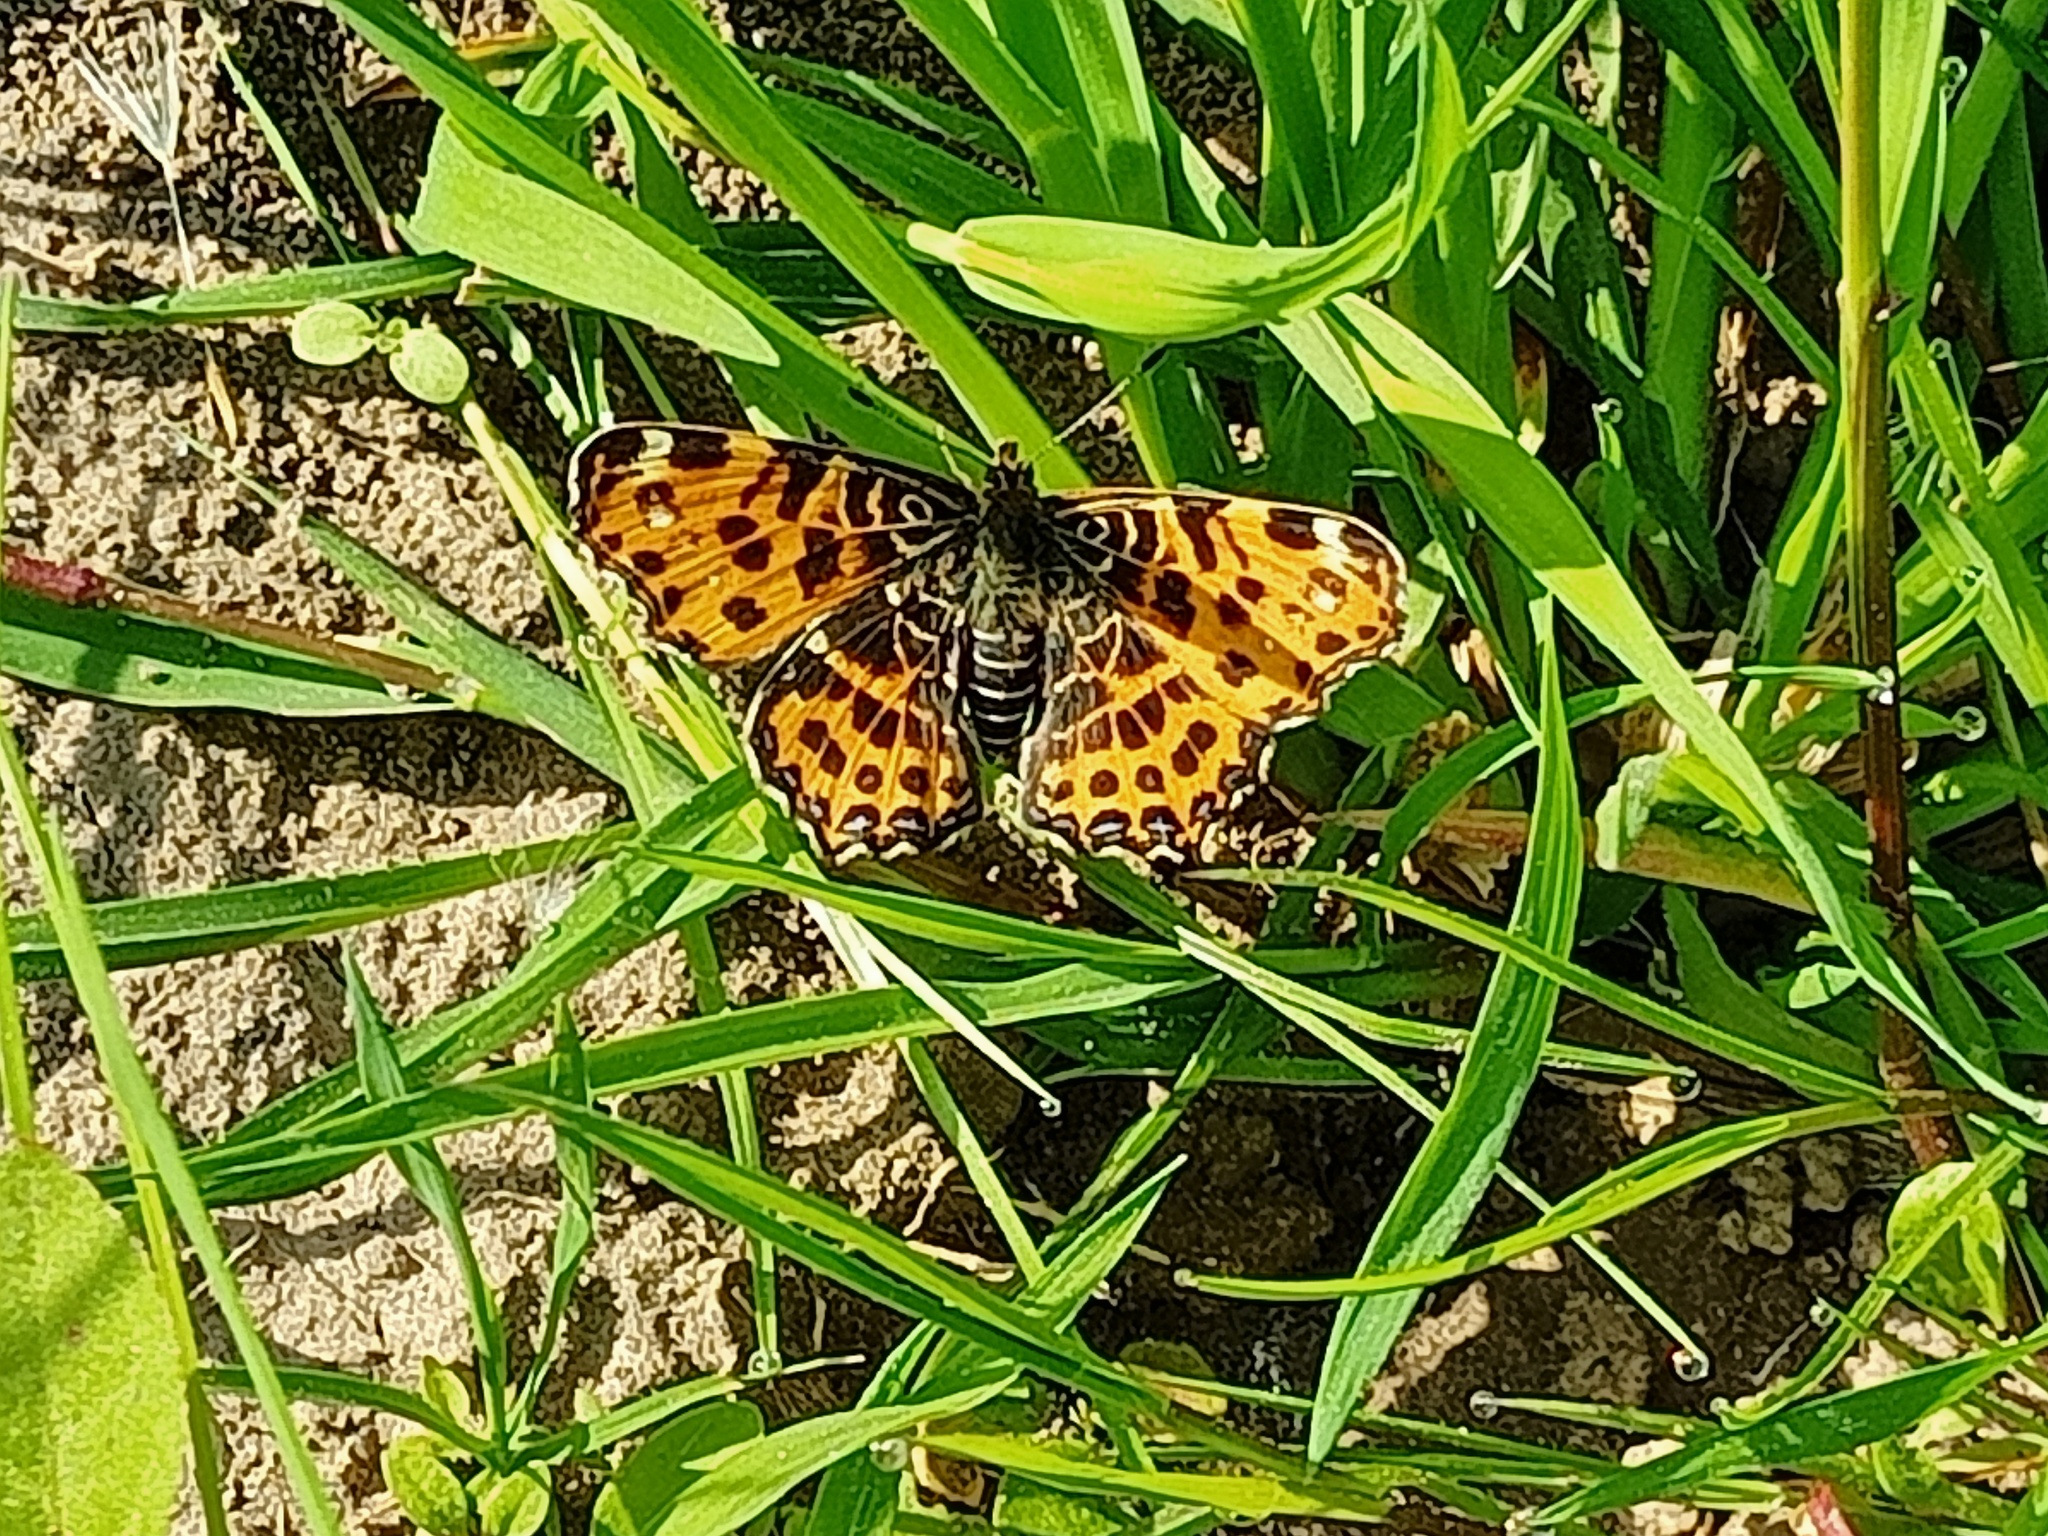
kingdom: Animalia
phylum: Arthropoda
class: Insecta
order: Lepidoptera
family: Nymphalidae
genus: Araschnia
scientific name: Araschnia levana
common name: Map butterfly
